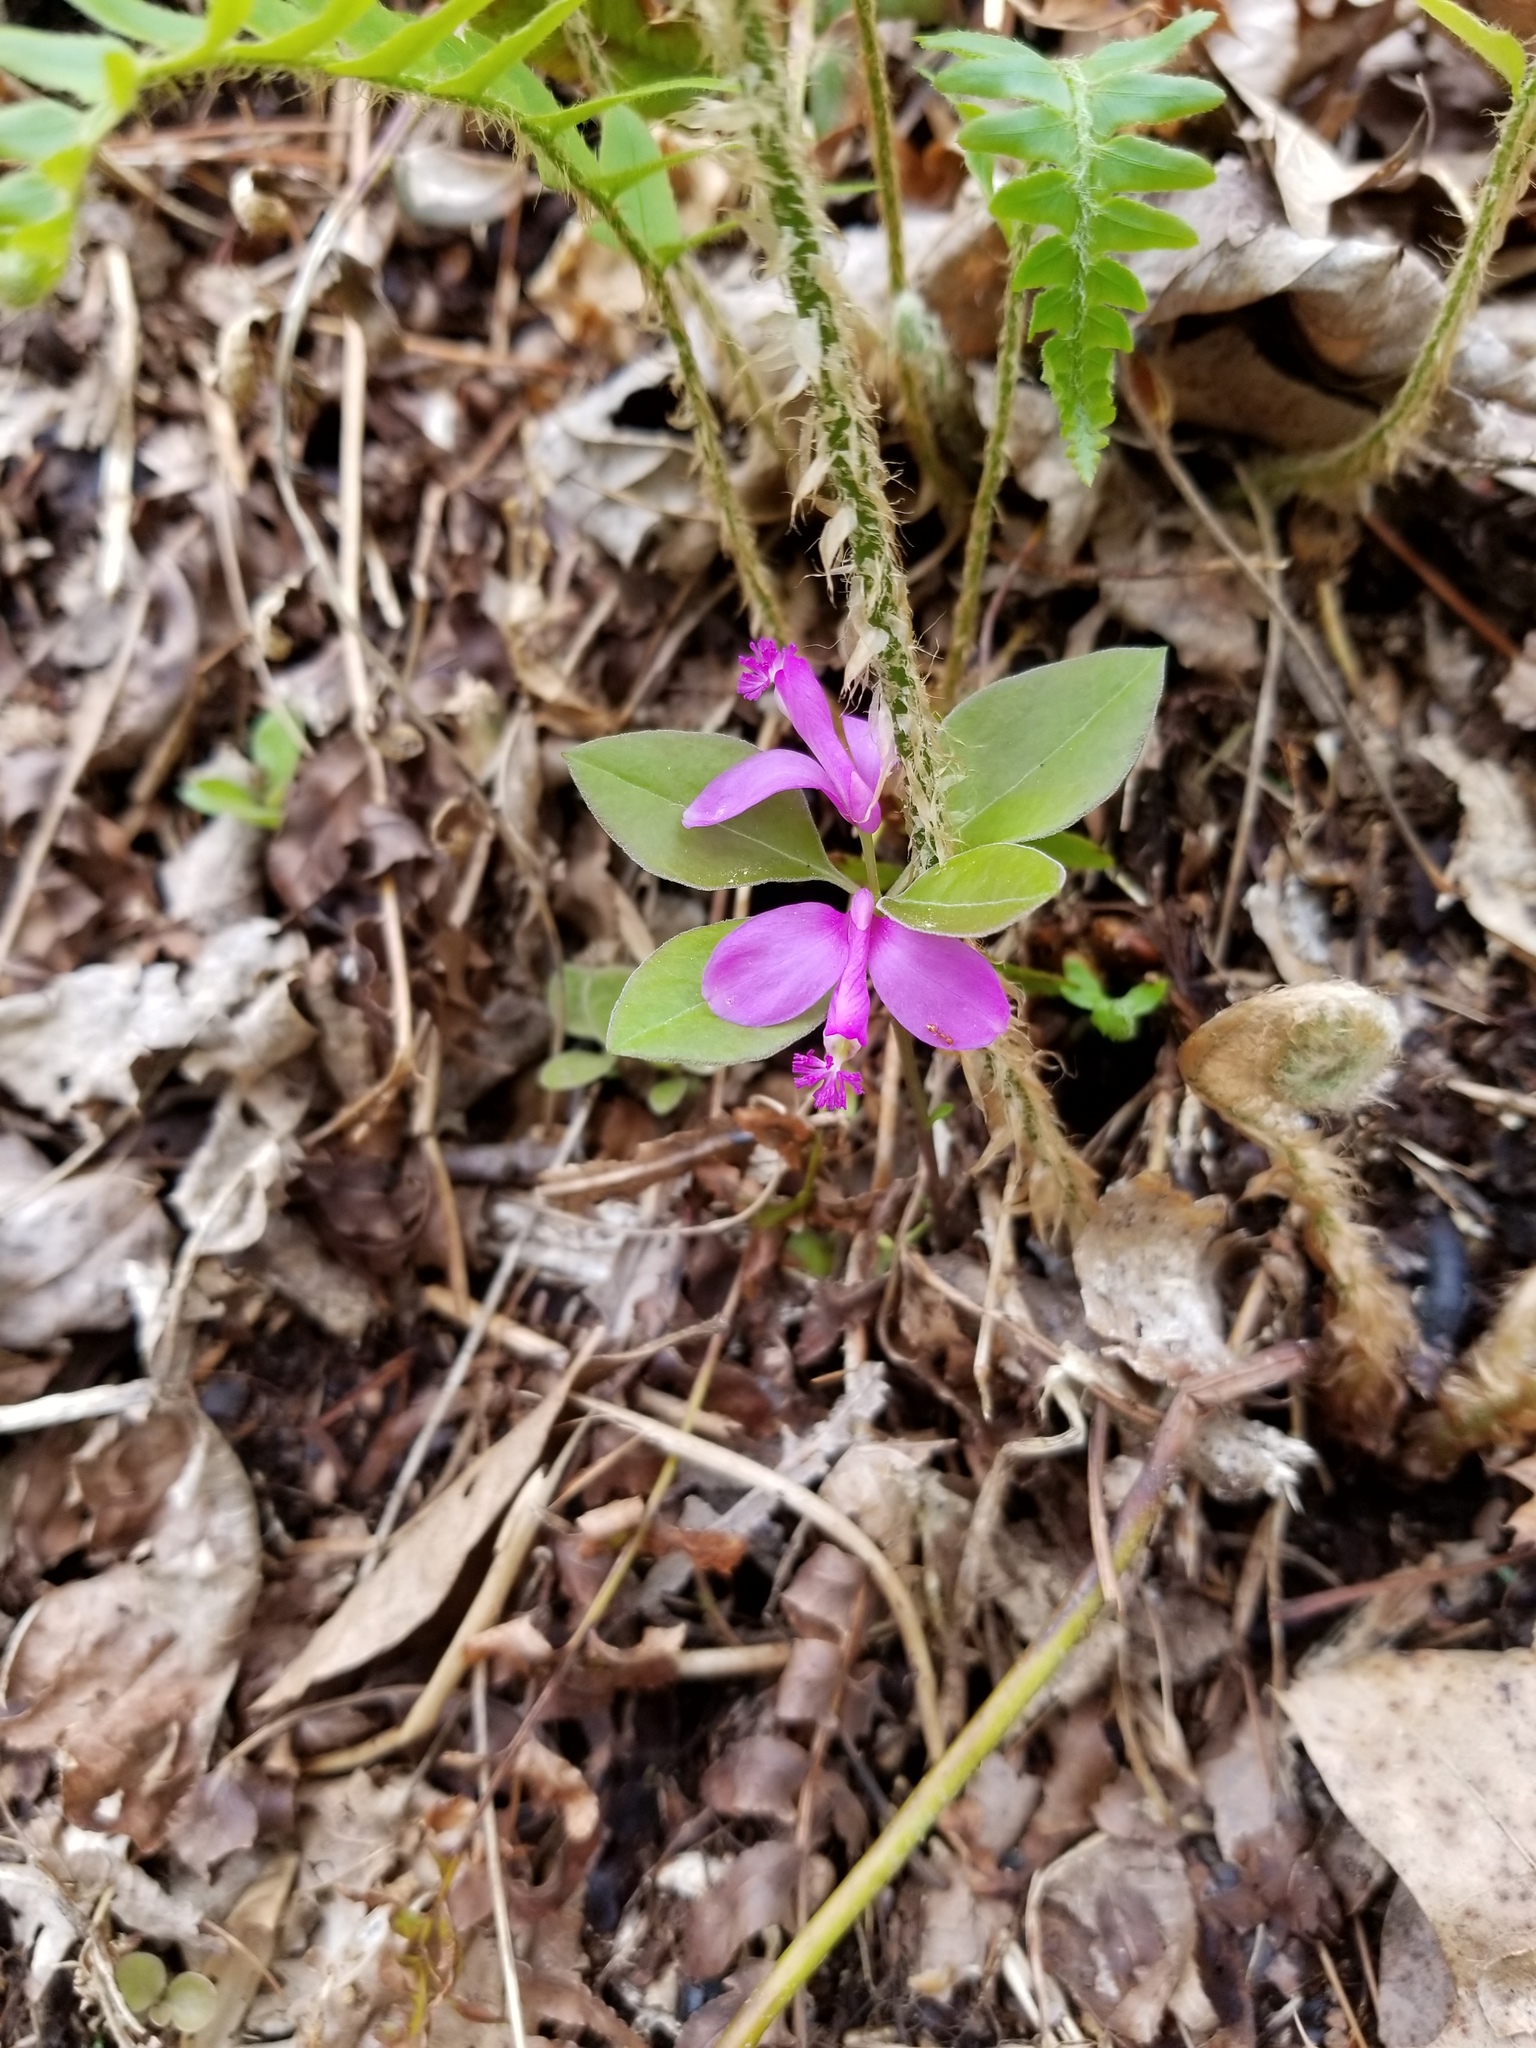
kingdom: Plantae
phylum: Tracheophyta
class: Magnoliopsida
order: Fabales
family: Polygalaceae
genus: Polygaloides
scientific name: Polygaloides paucifolia
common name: Bird-on-the-wing
